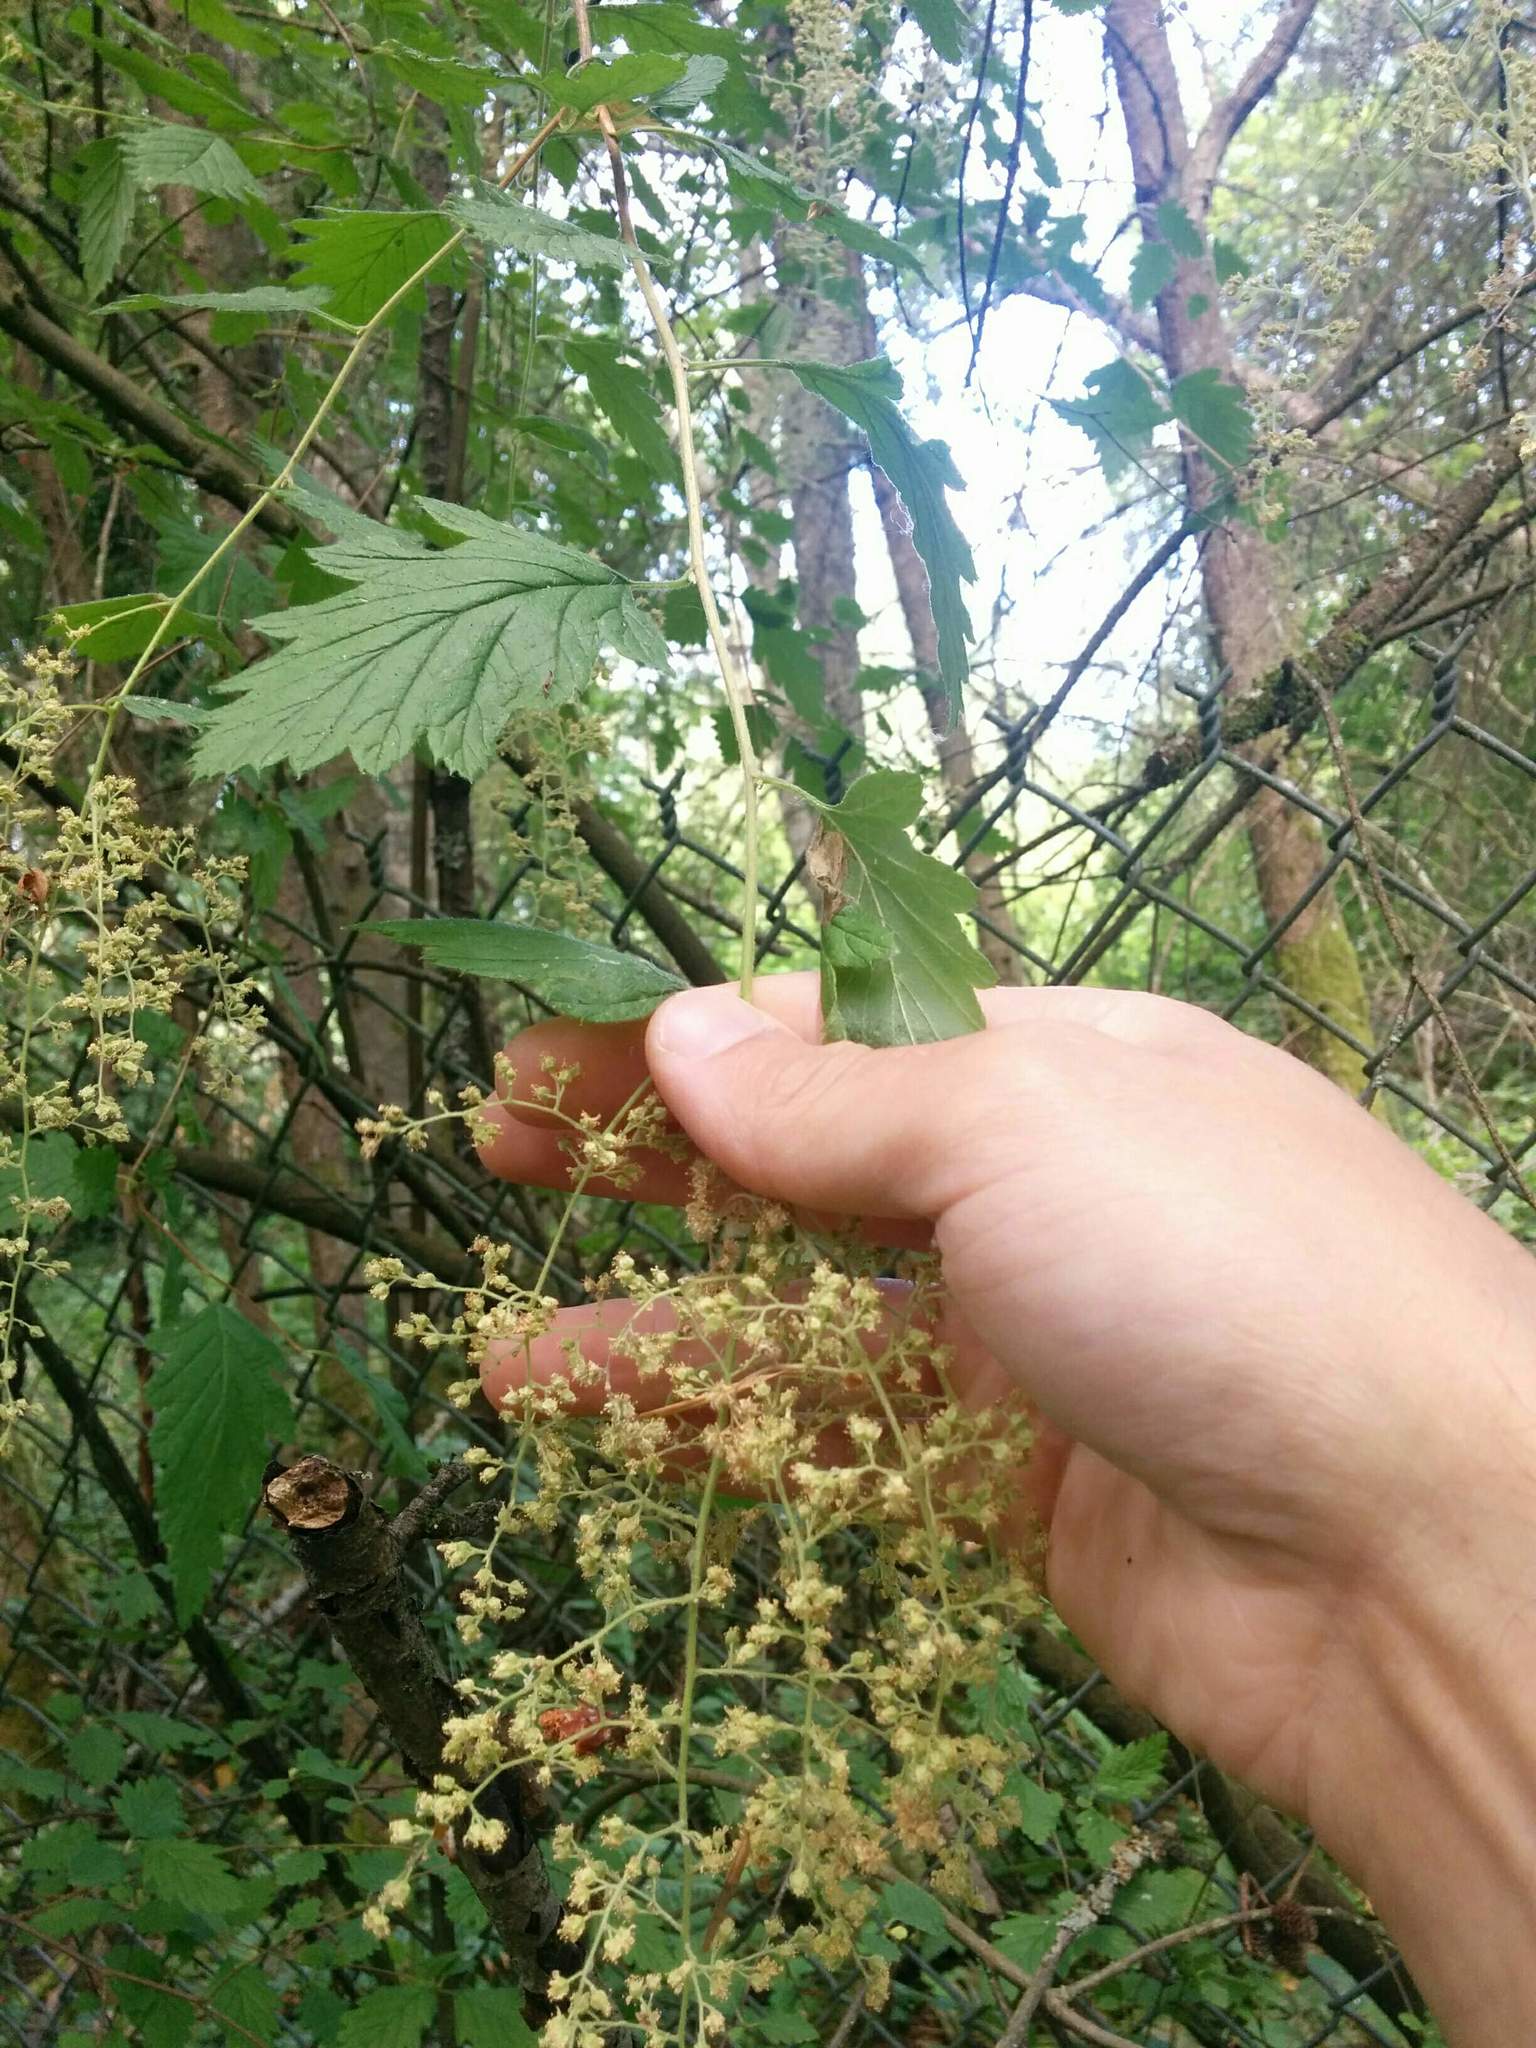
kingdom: Plantae
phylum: Tracheophyta
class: Magnoliopsida
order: Rosales
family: Rosaceae
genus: Holodiscus
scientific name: Holodiscus discolor
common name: Oceanspray
